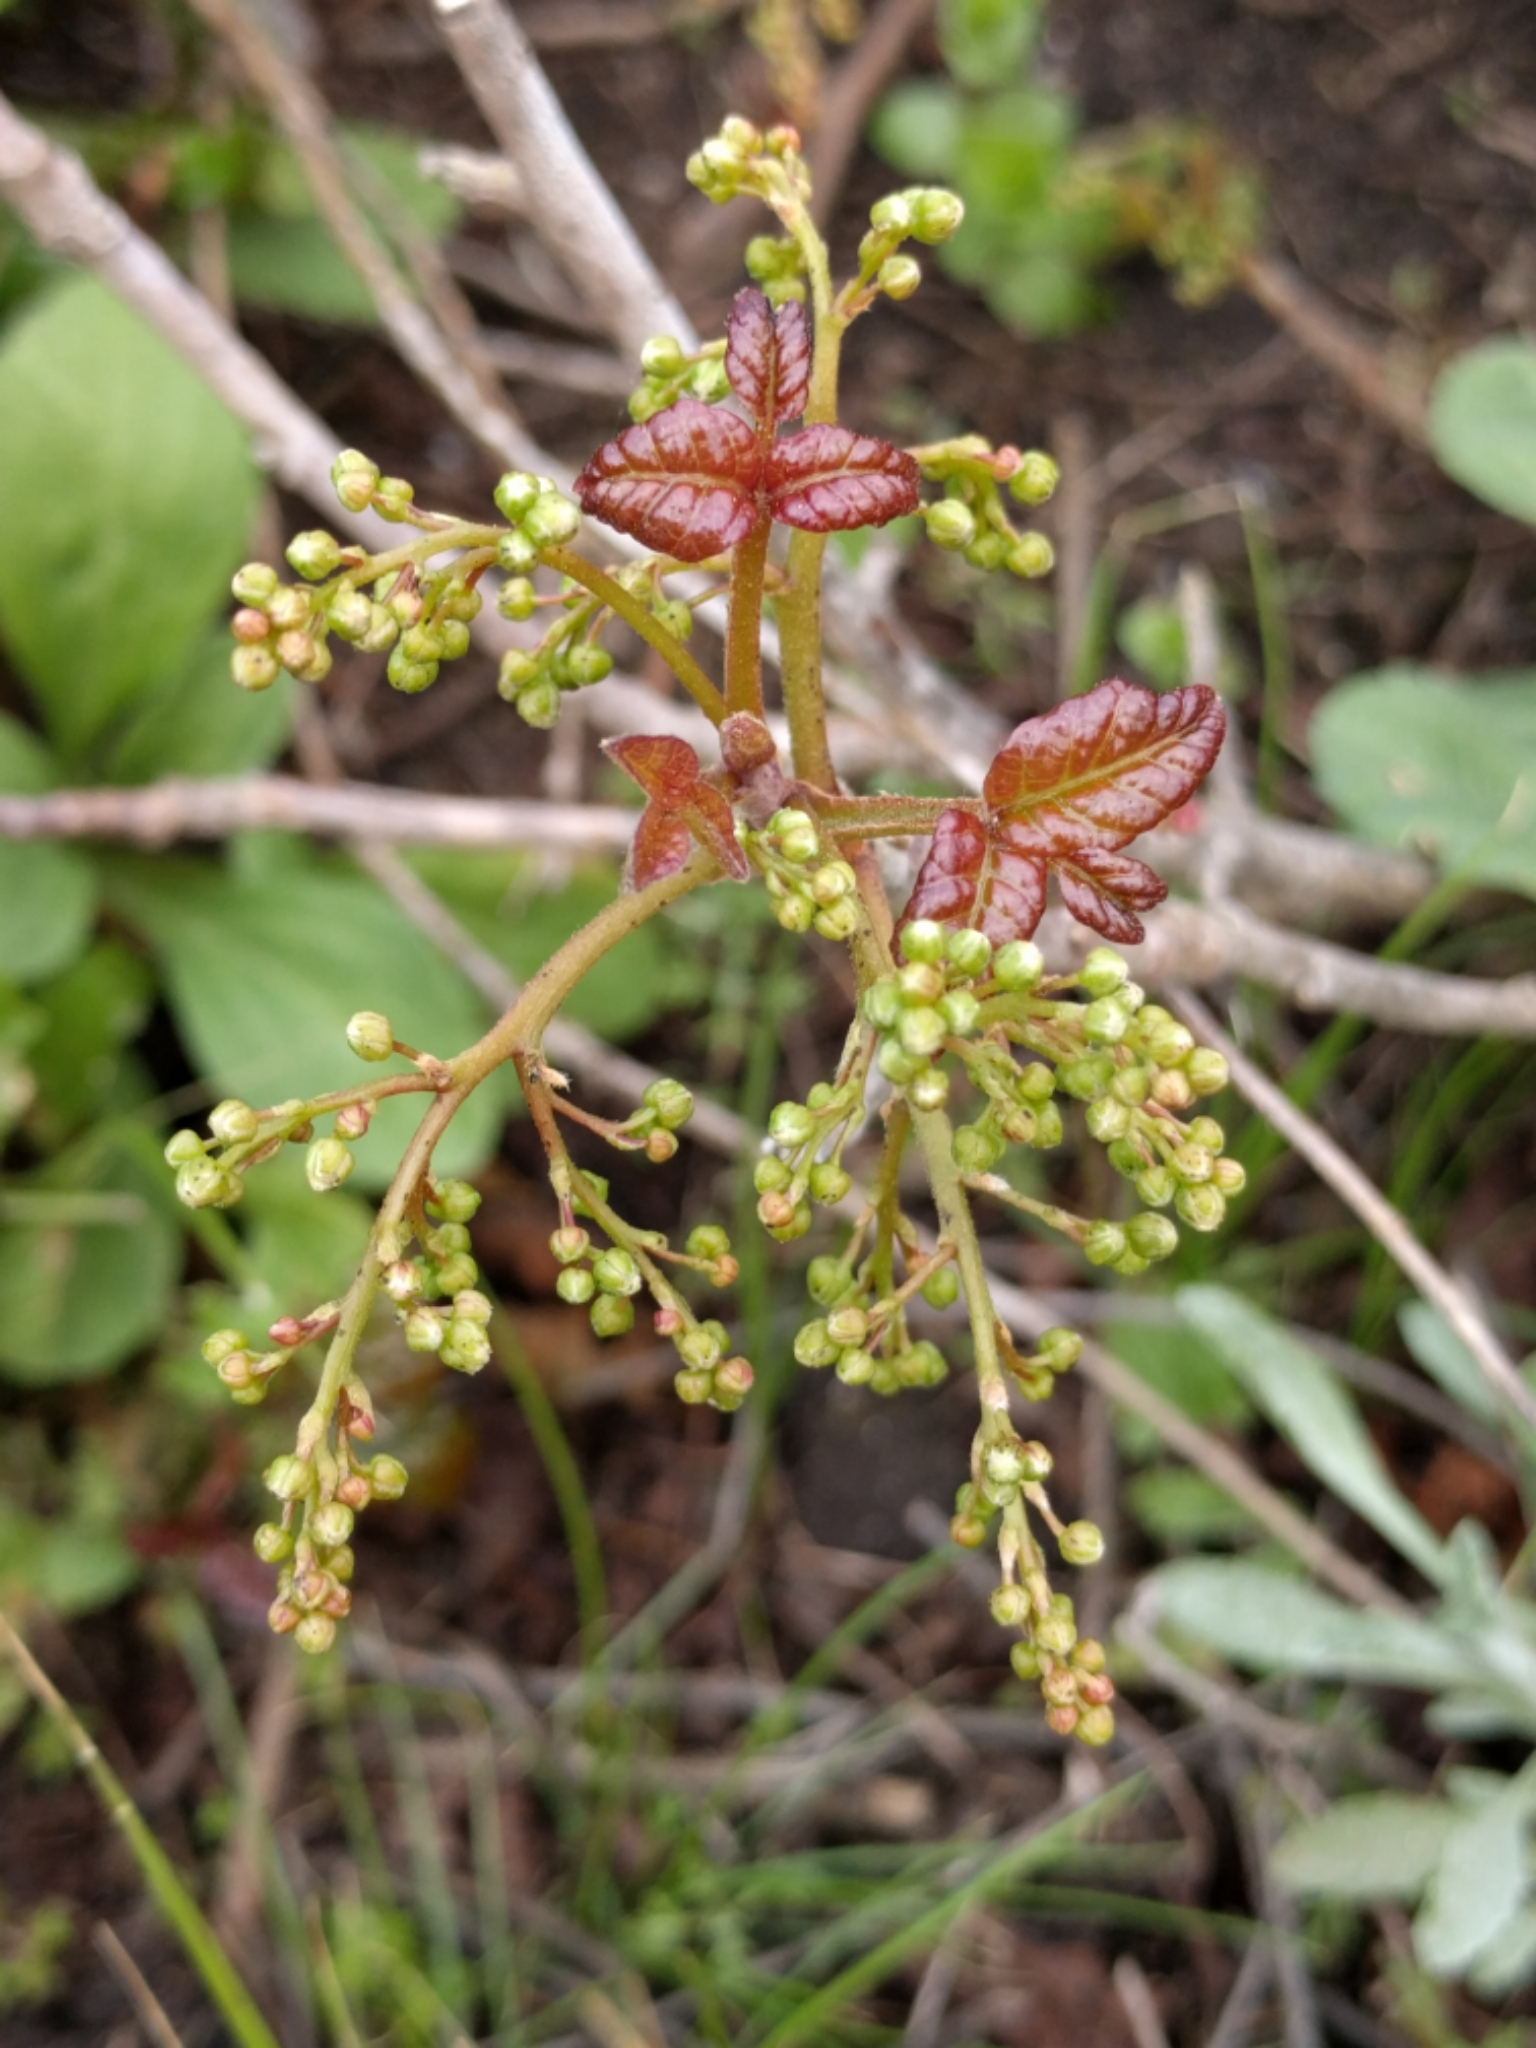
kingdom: Plantae
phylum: Tracheophyta
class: Magnoliopsida
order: Sapindales
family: Anacardiaceae
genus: Toxicodendron
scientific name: Toxicodendron diversilobum
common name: Pacific poison-oak
